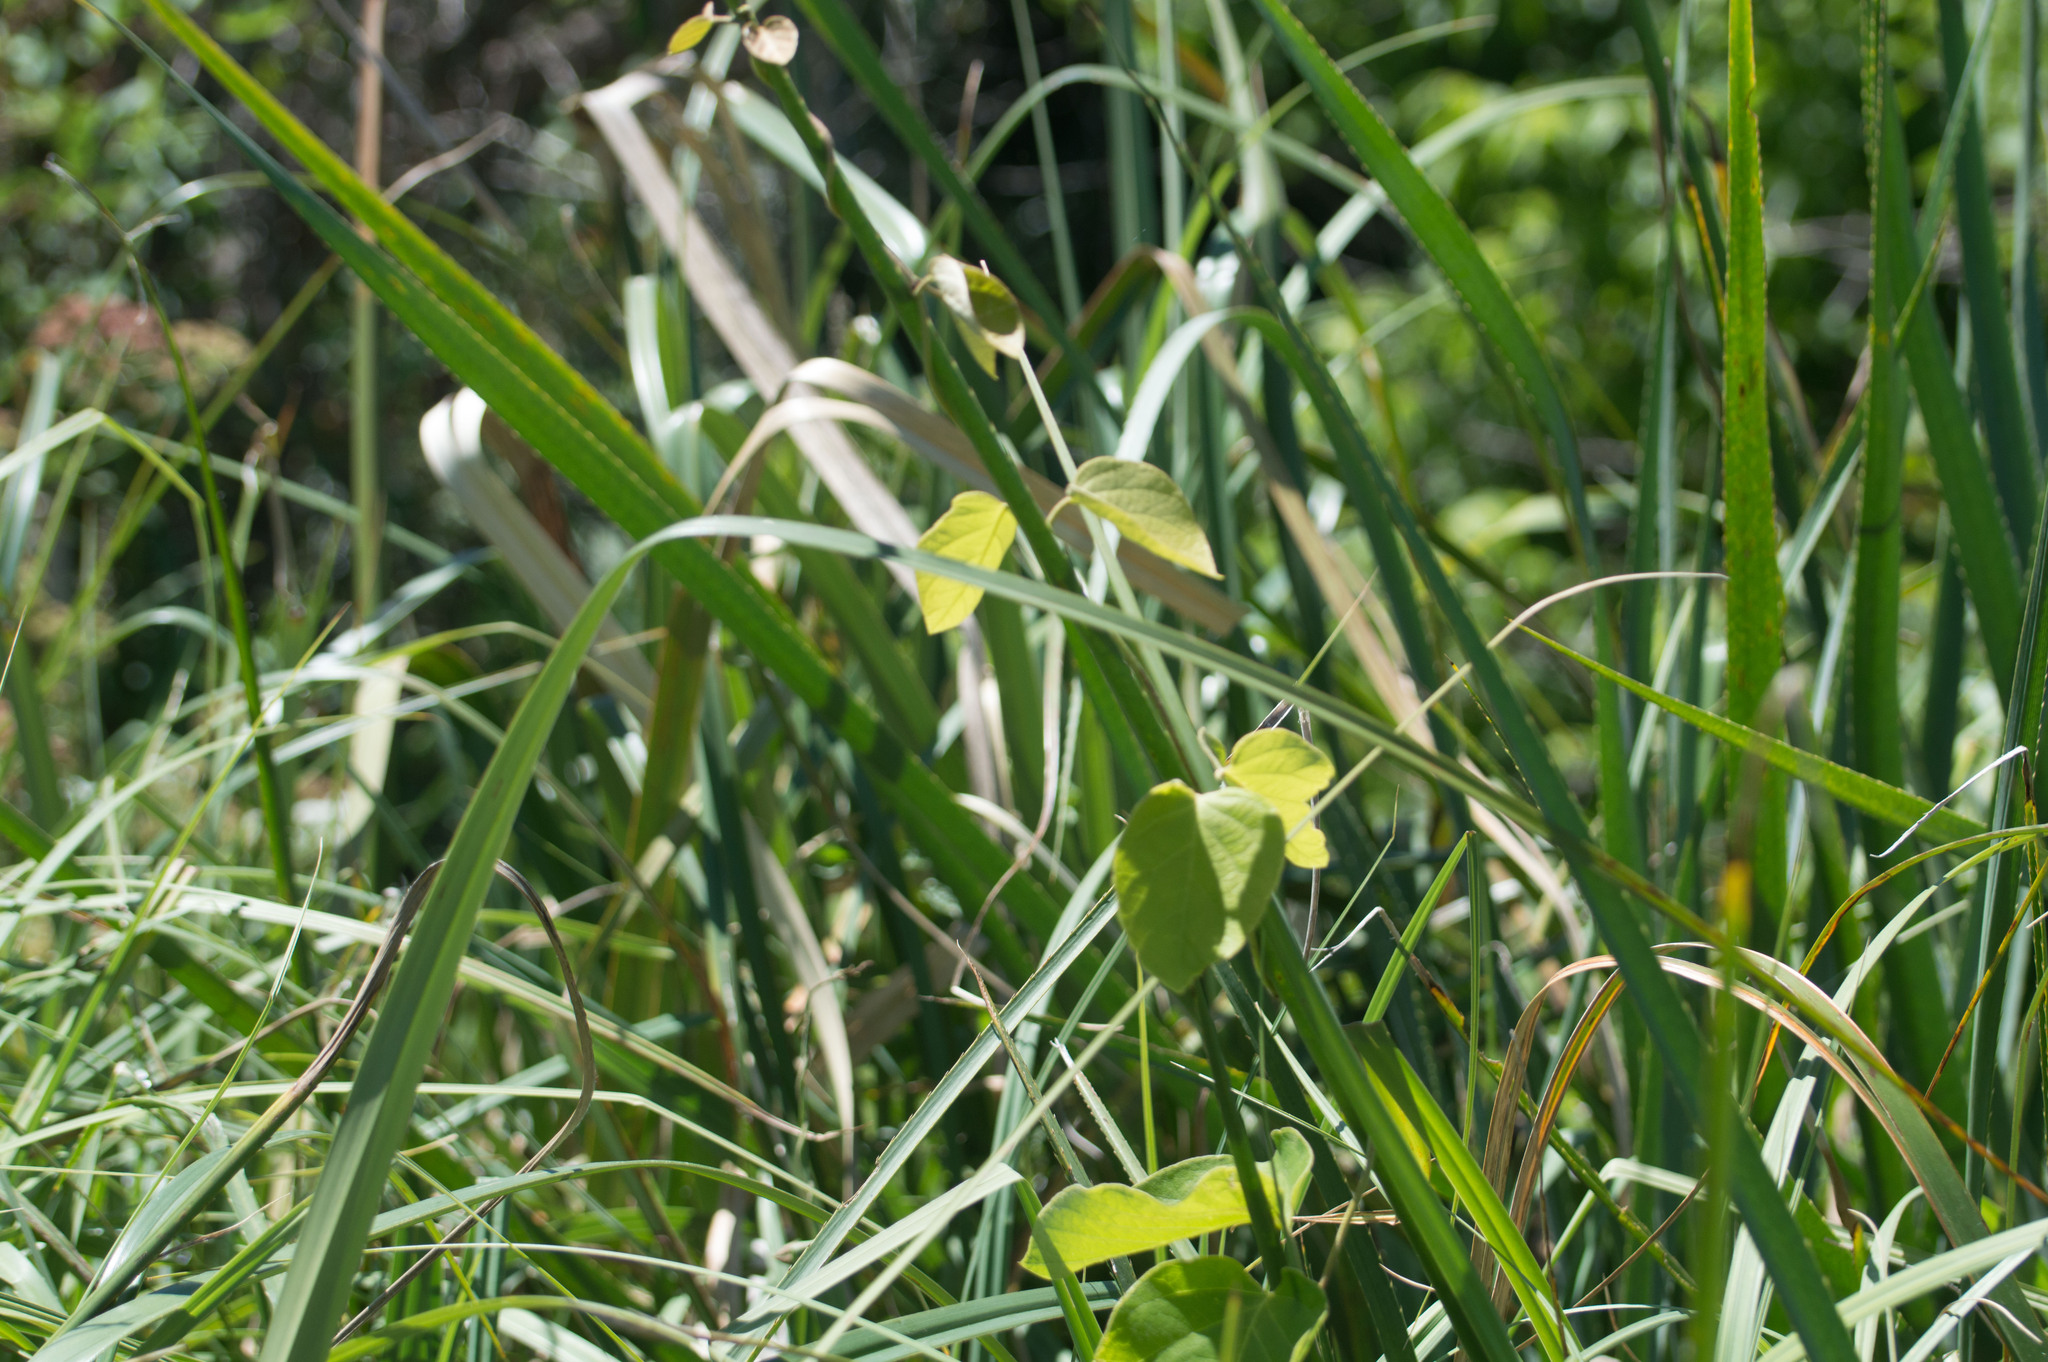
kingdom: Plantae
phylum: Tracheophyta
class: Magnoliopsida
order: Malpighiales
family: Malpighiaceae
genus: Stigmaphyllon
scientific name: Stigmaphyllon bonariense
